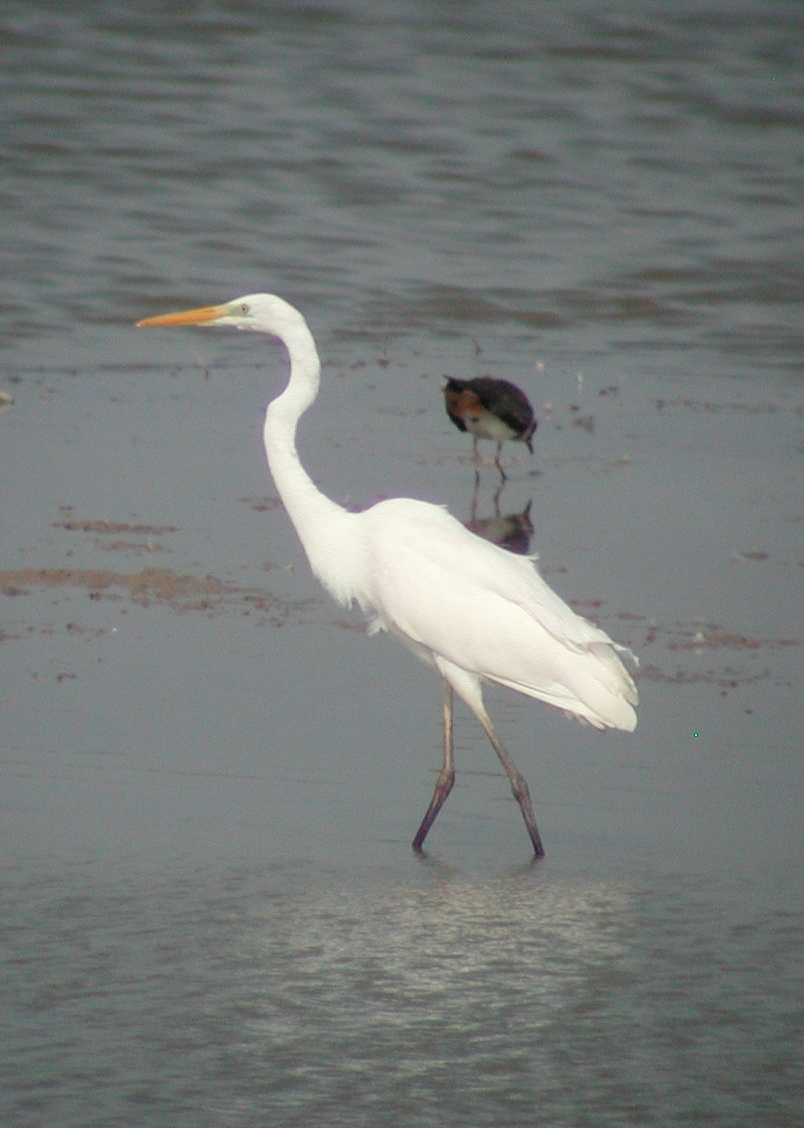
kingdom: Animalia
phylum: Chordata
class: Aves
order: Pelecaniformes
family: Ardeidae
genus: Ardea
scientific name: Ardea alba
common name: Great egret
